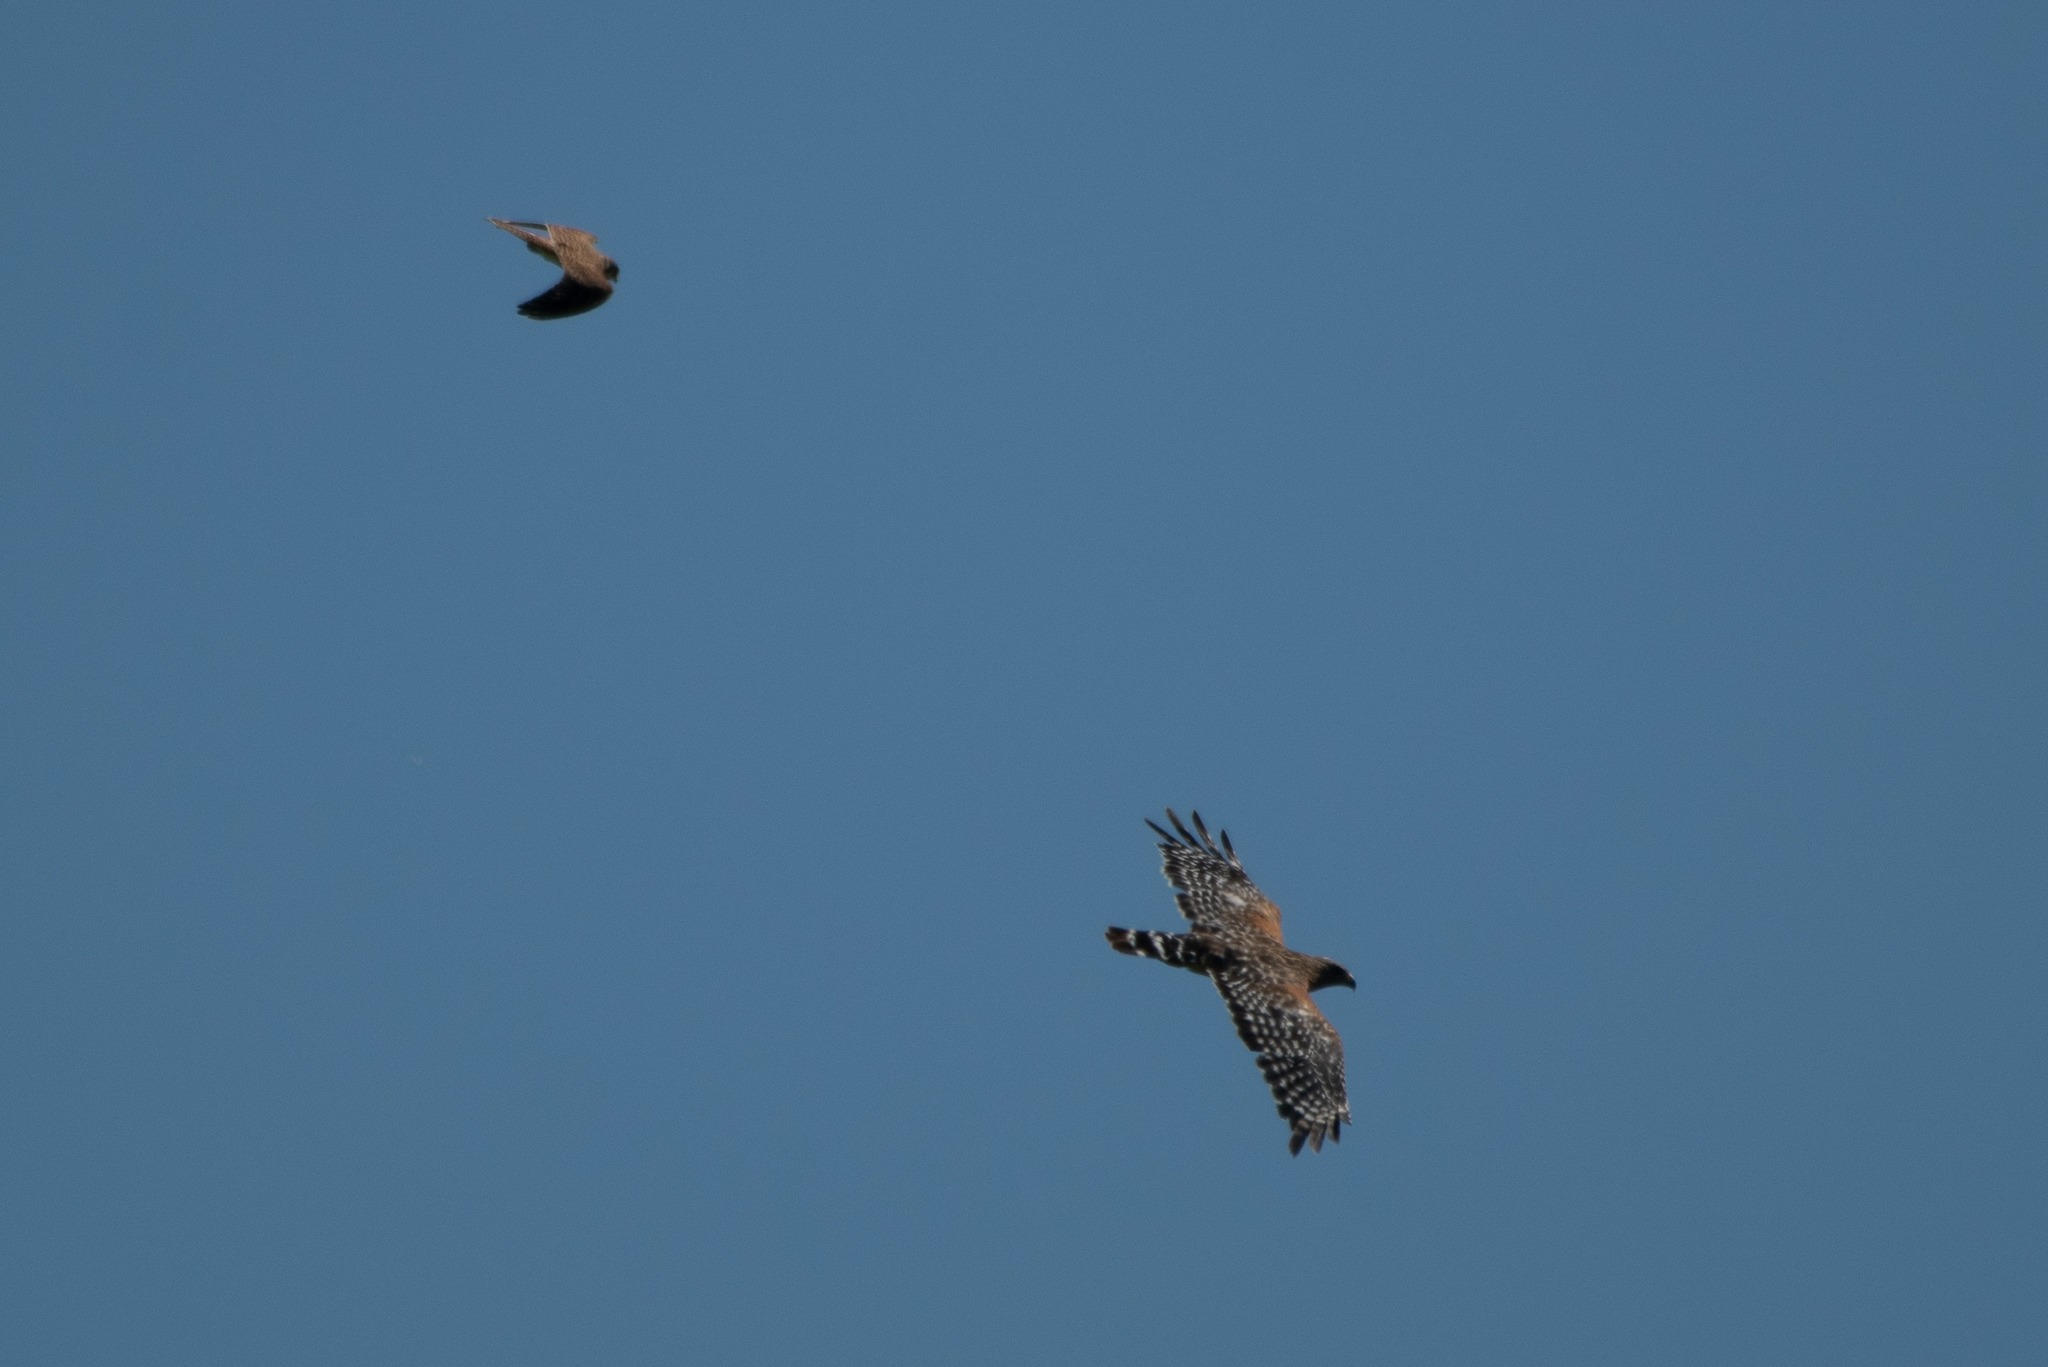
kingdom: Animalia
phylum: Chordata
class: Aves
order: Accipitriformes
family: Accipitridae
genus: Buteo
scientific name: Buteo lineatus
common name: Red-shouldered hawk
